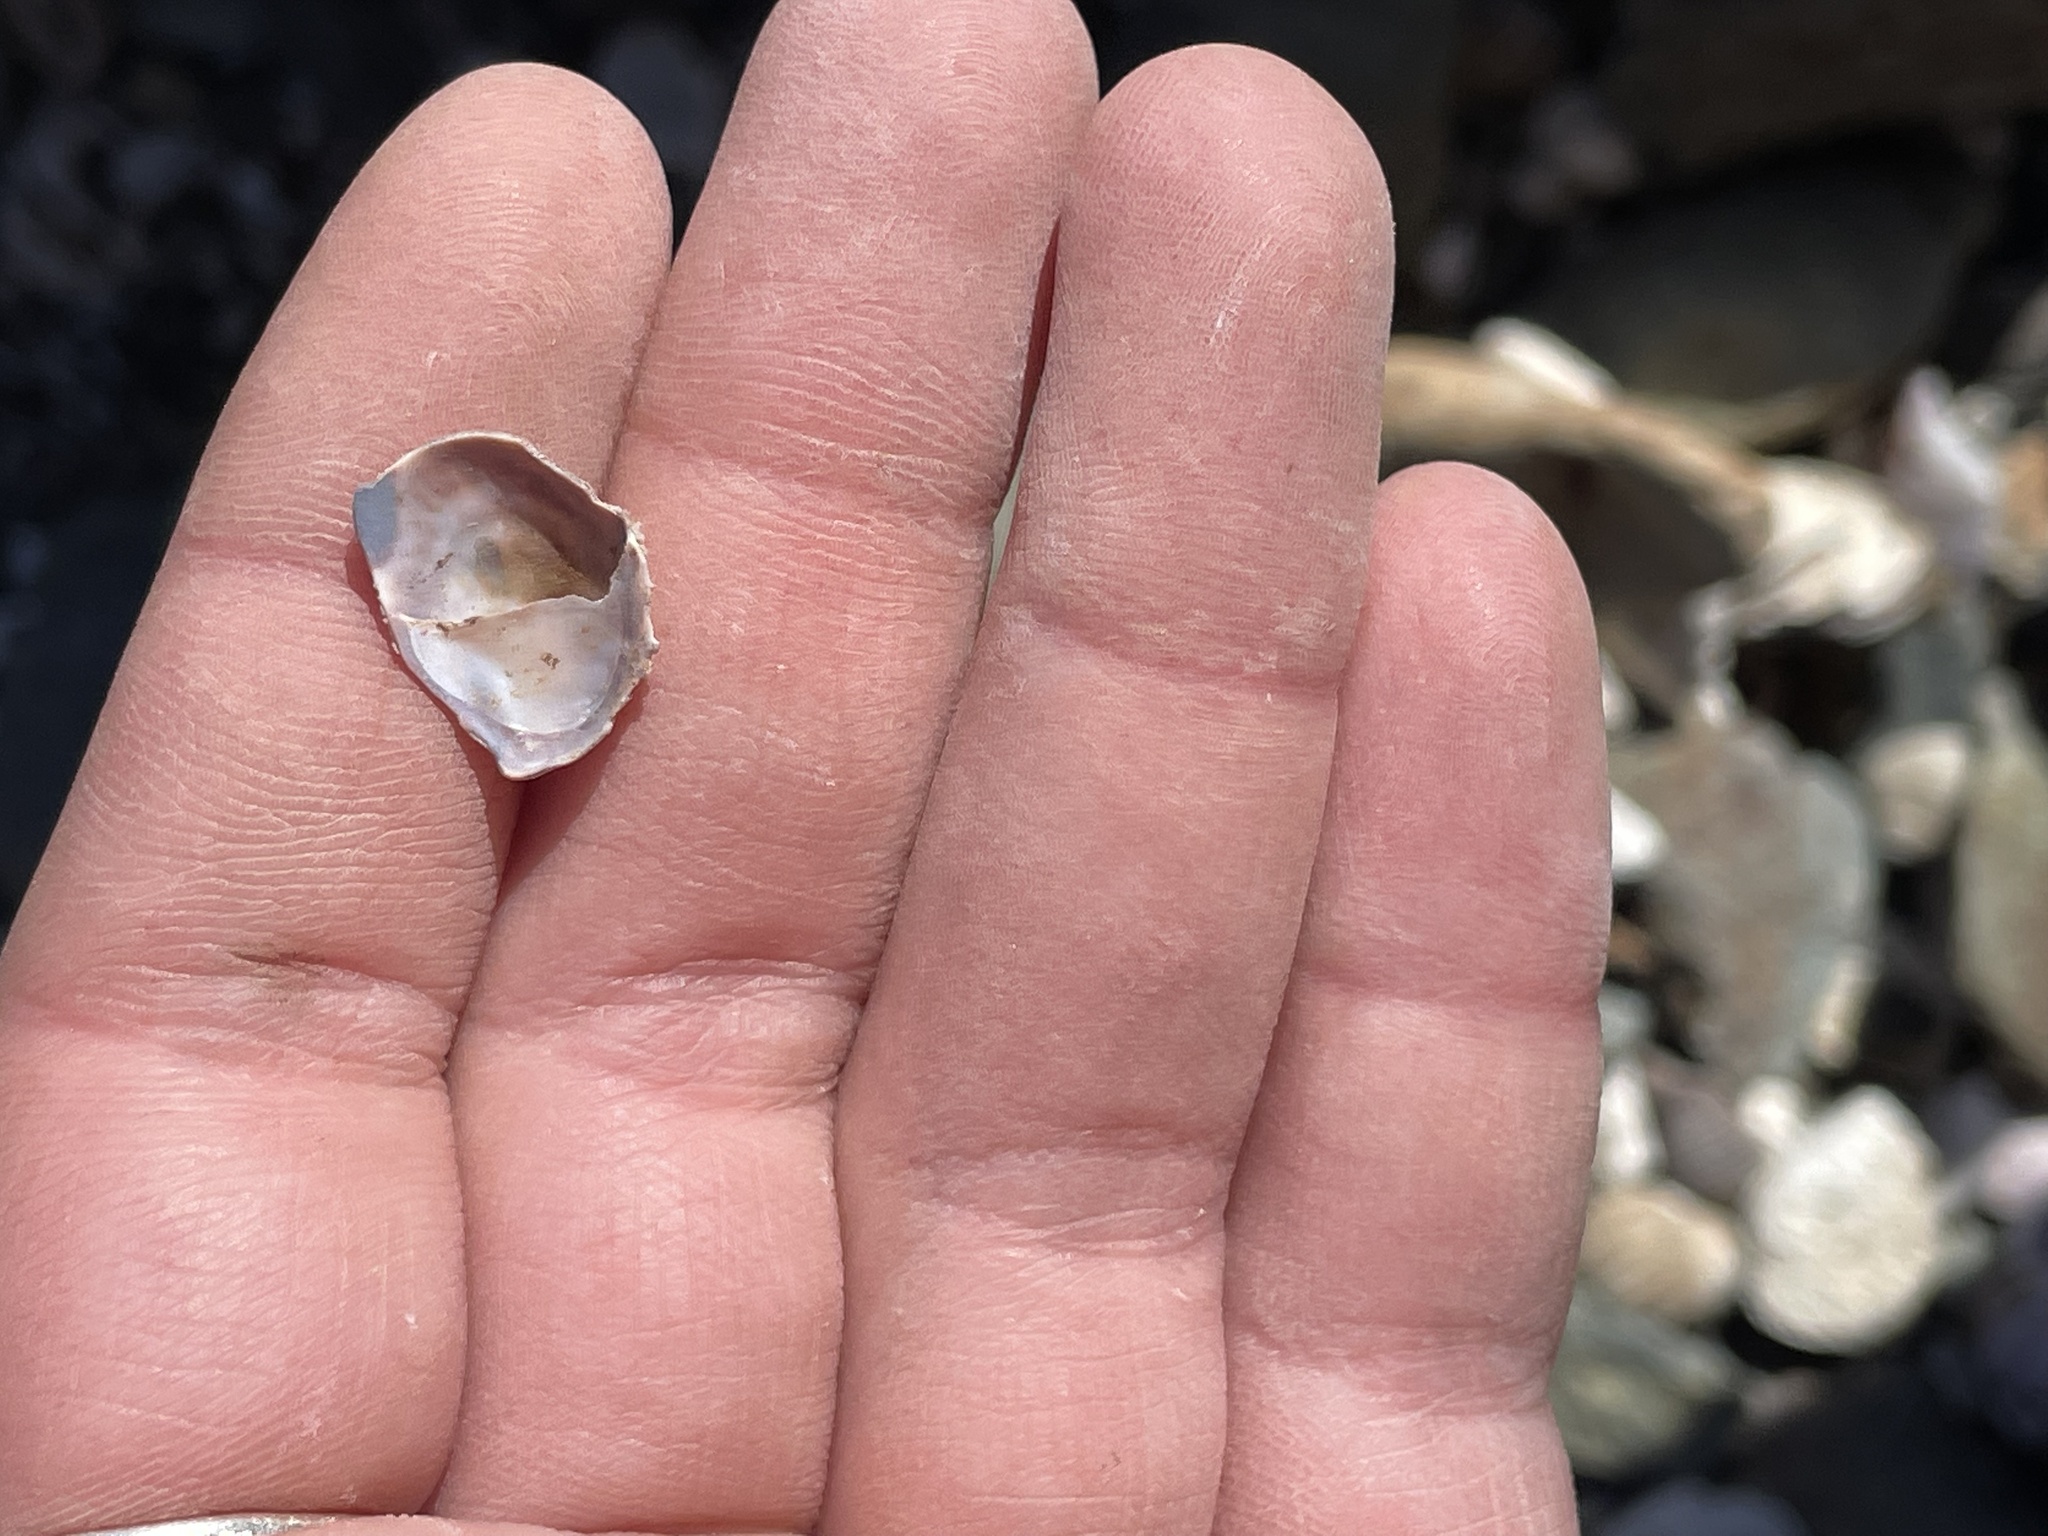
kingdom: Animalia
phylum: Mollusca
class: Gastropoda
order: Littorinimorpha
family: Calyptraeidae
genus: Crepidula
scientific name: Crepidula fornicata
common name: Slipper limpet
